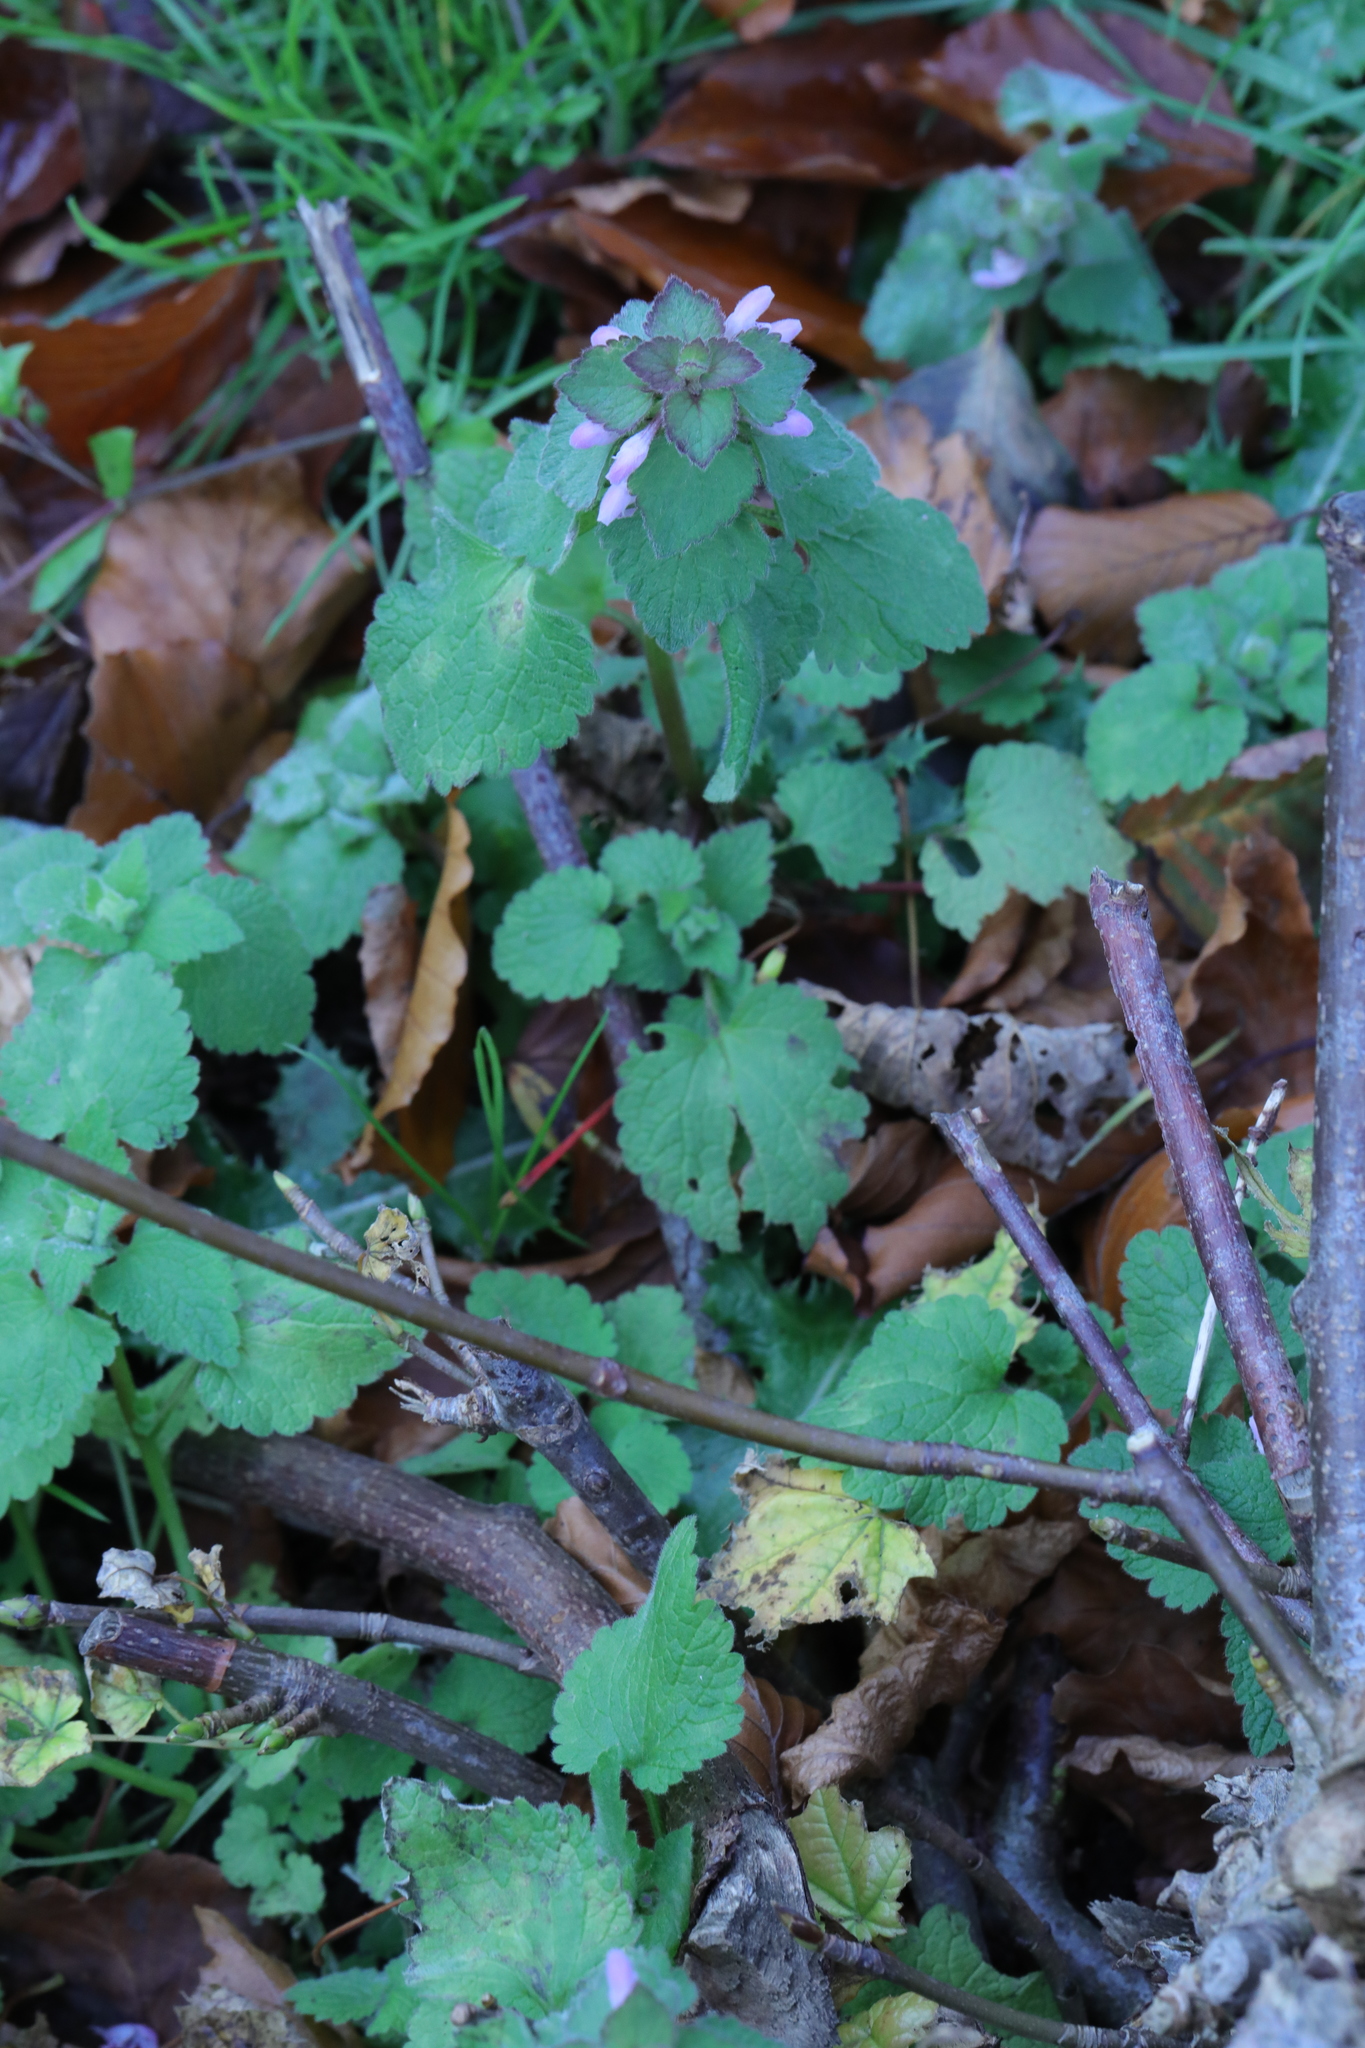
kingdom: Plantae
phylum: Tracheophyta
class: Magnoliopsida
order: Lamiales
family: Lamiaceae
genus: Lamium
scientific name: Lamium purpureum
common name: Red dead-nettle
